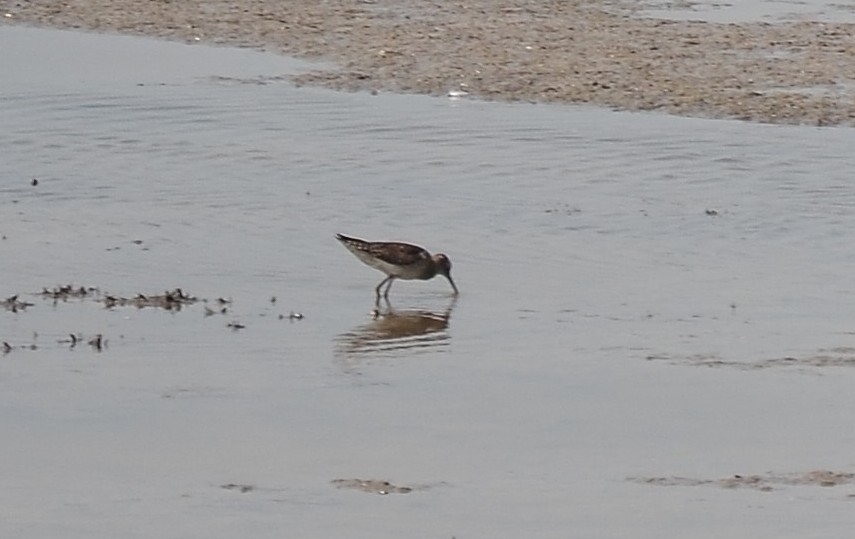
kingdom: Animalia
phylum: Chordata
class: Aves
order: Charadriiformes
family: Scolopacidae
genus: Tringa
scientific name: Tringa glareola
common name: Wood sandpiper
